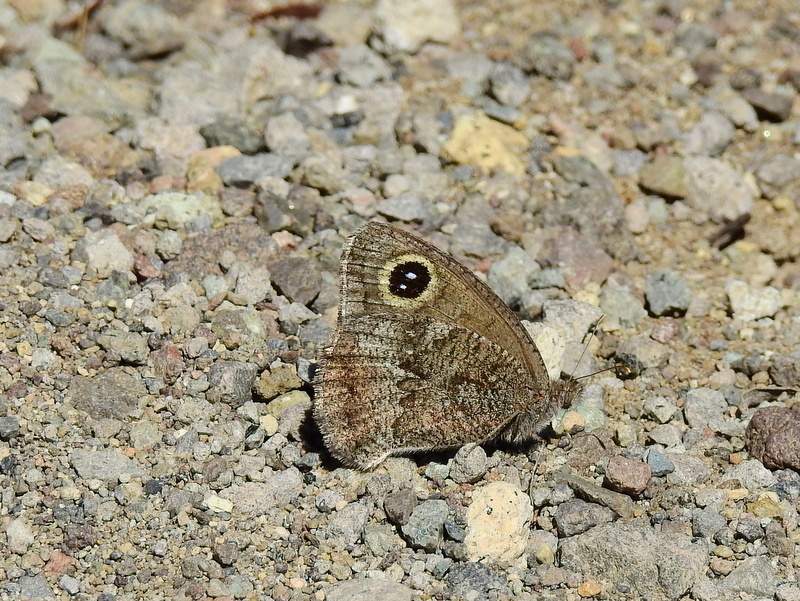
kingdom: Animalia
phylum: Arthropoda
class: Insecta
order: Lepidoptera
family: Nymphalidae
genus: Pampasatyrus
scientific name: Pampasatyrus yacantoensis
